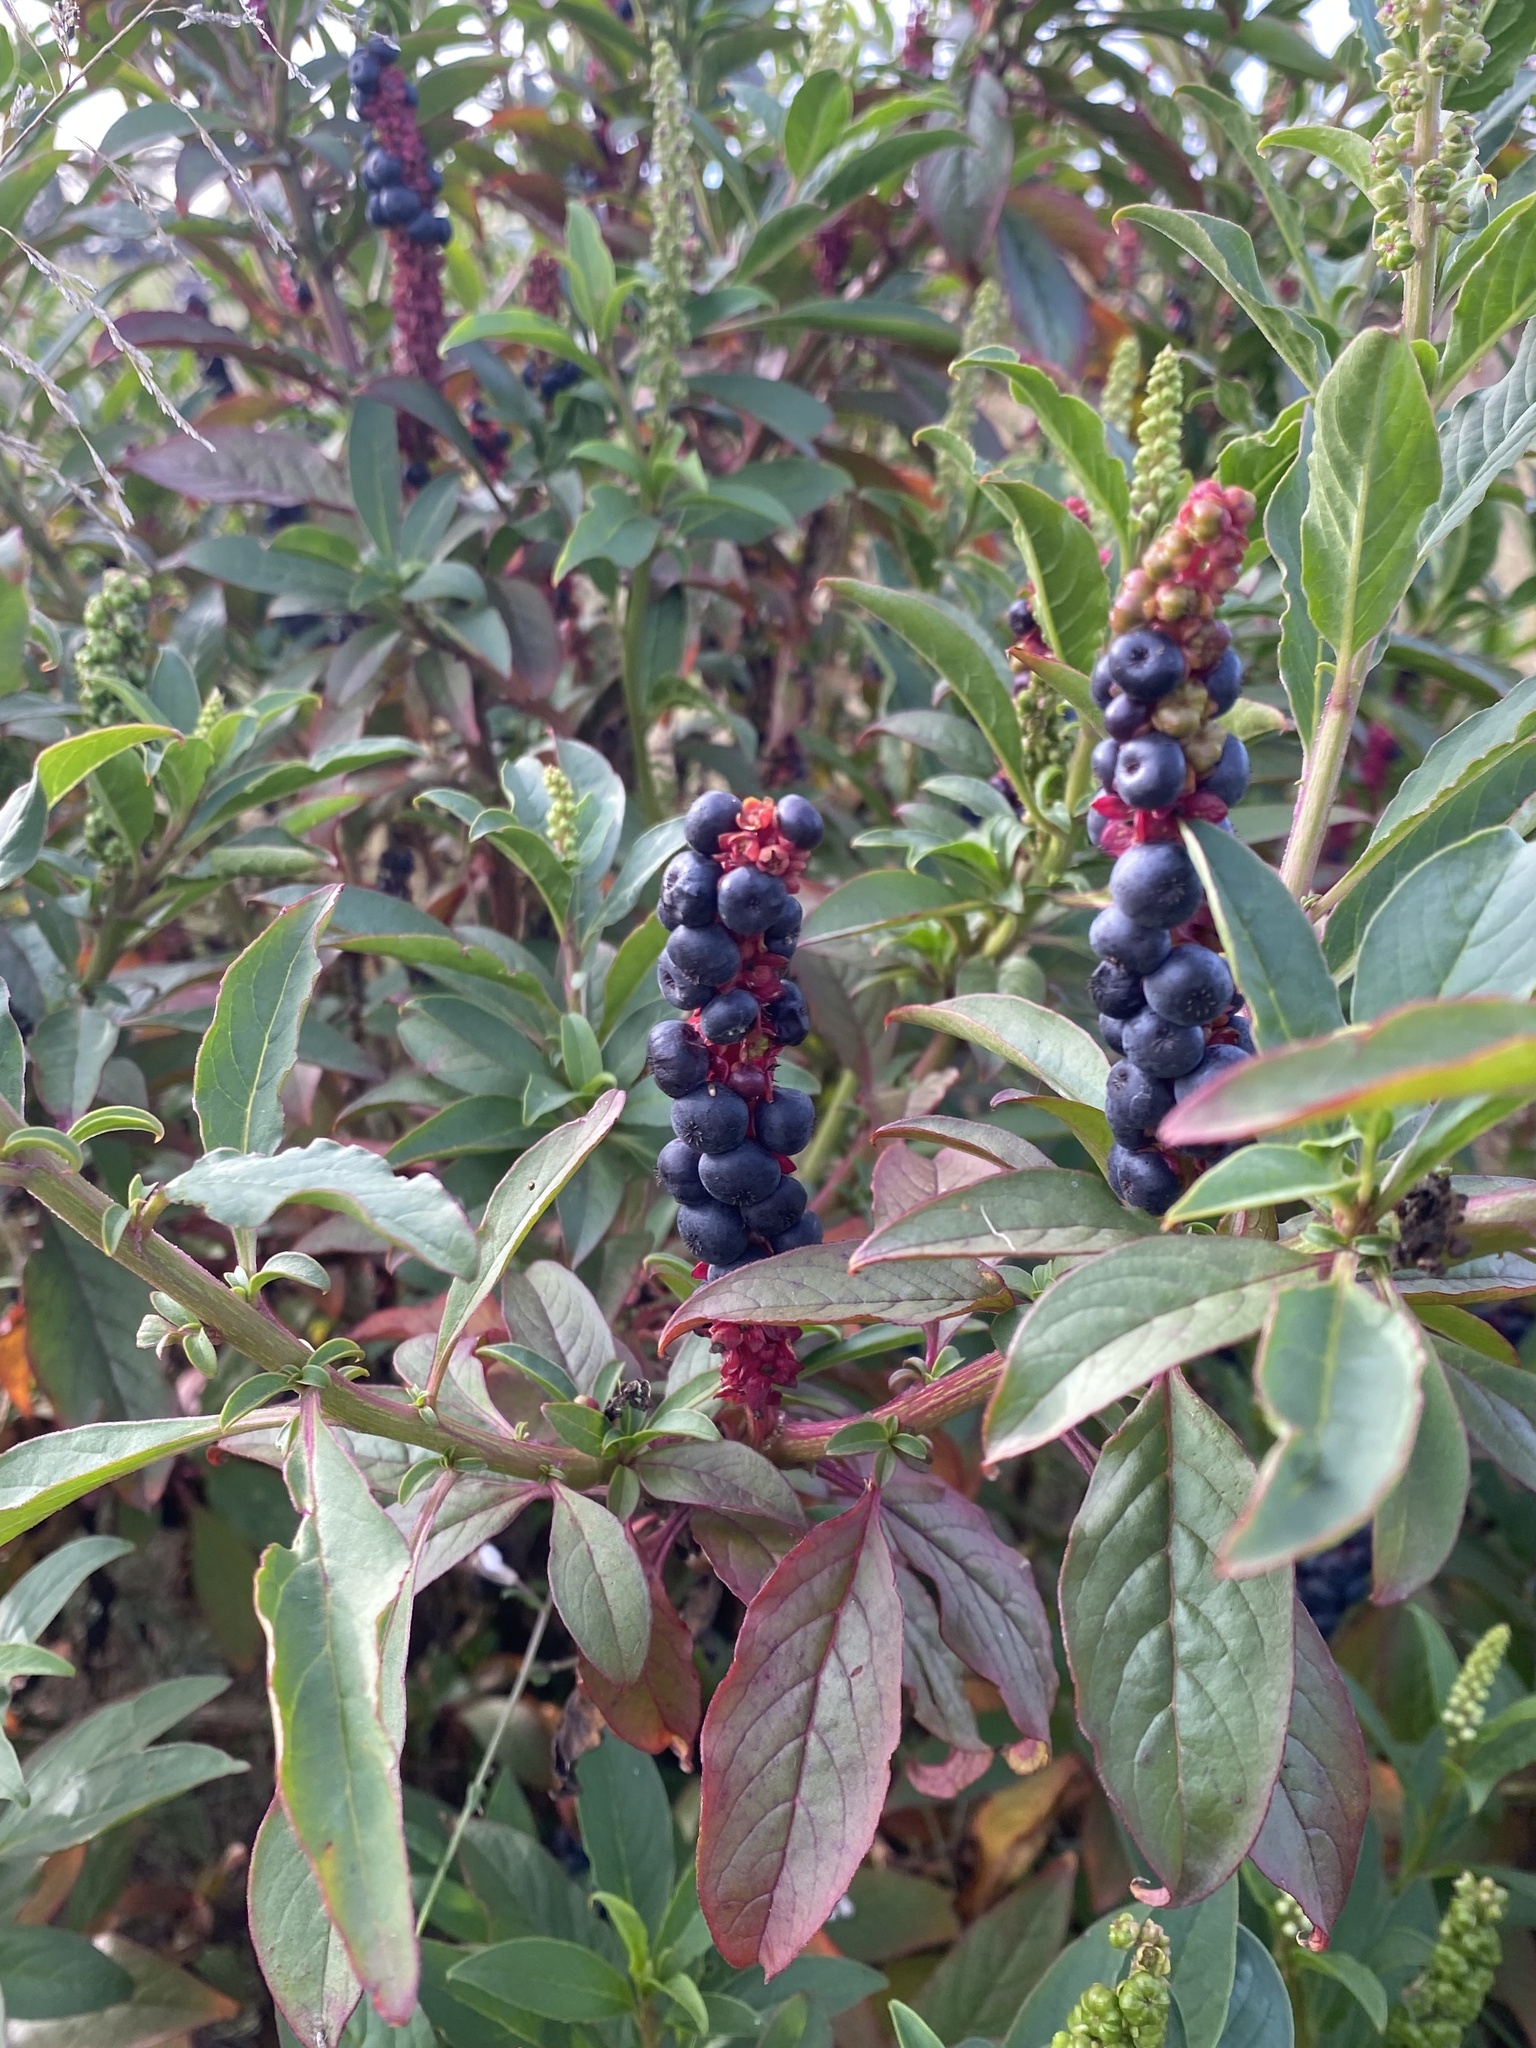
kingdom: Plantae
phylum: Tracheophyta
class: Magnoliopsida
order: Caryophyllales
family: Phytolaccaceae
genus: Phytolacca
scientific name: Phytolacca icosandra
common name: Button pokeweed
